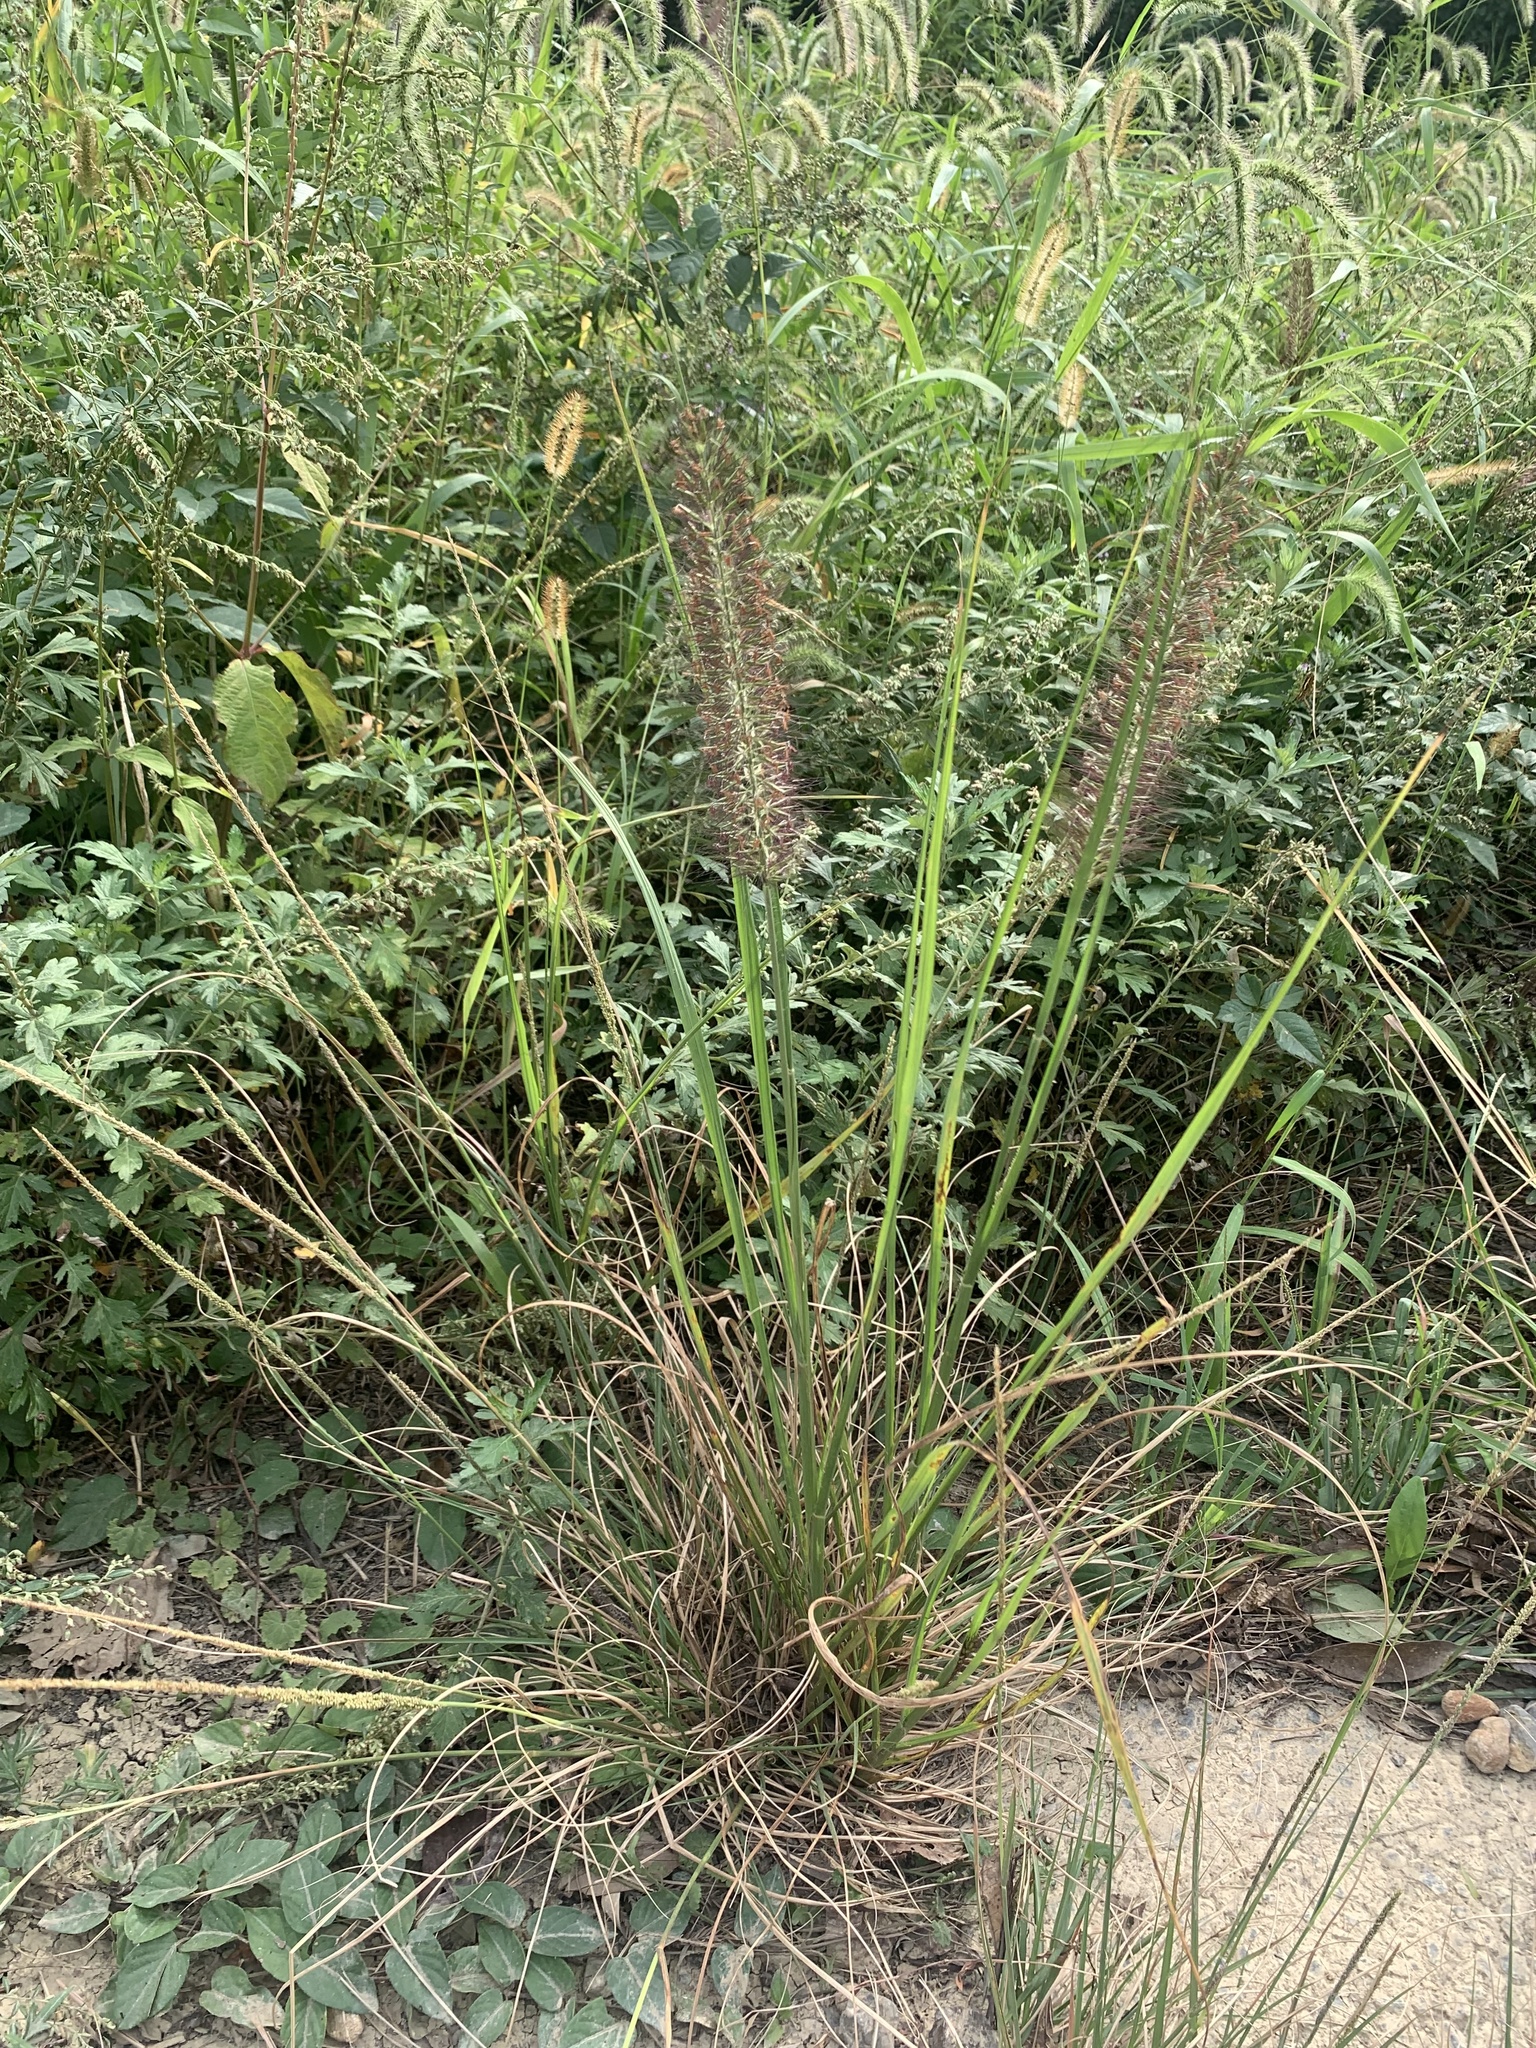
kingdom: Plantae
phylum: Tracheophyta
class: Liliopsida
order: Poales
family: Poaceae
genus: Cenchrus
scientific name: Cenchrus alopecuroides
